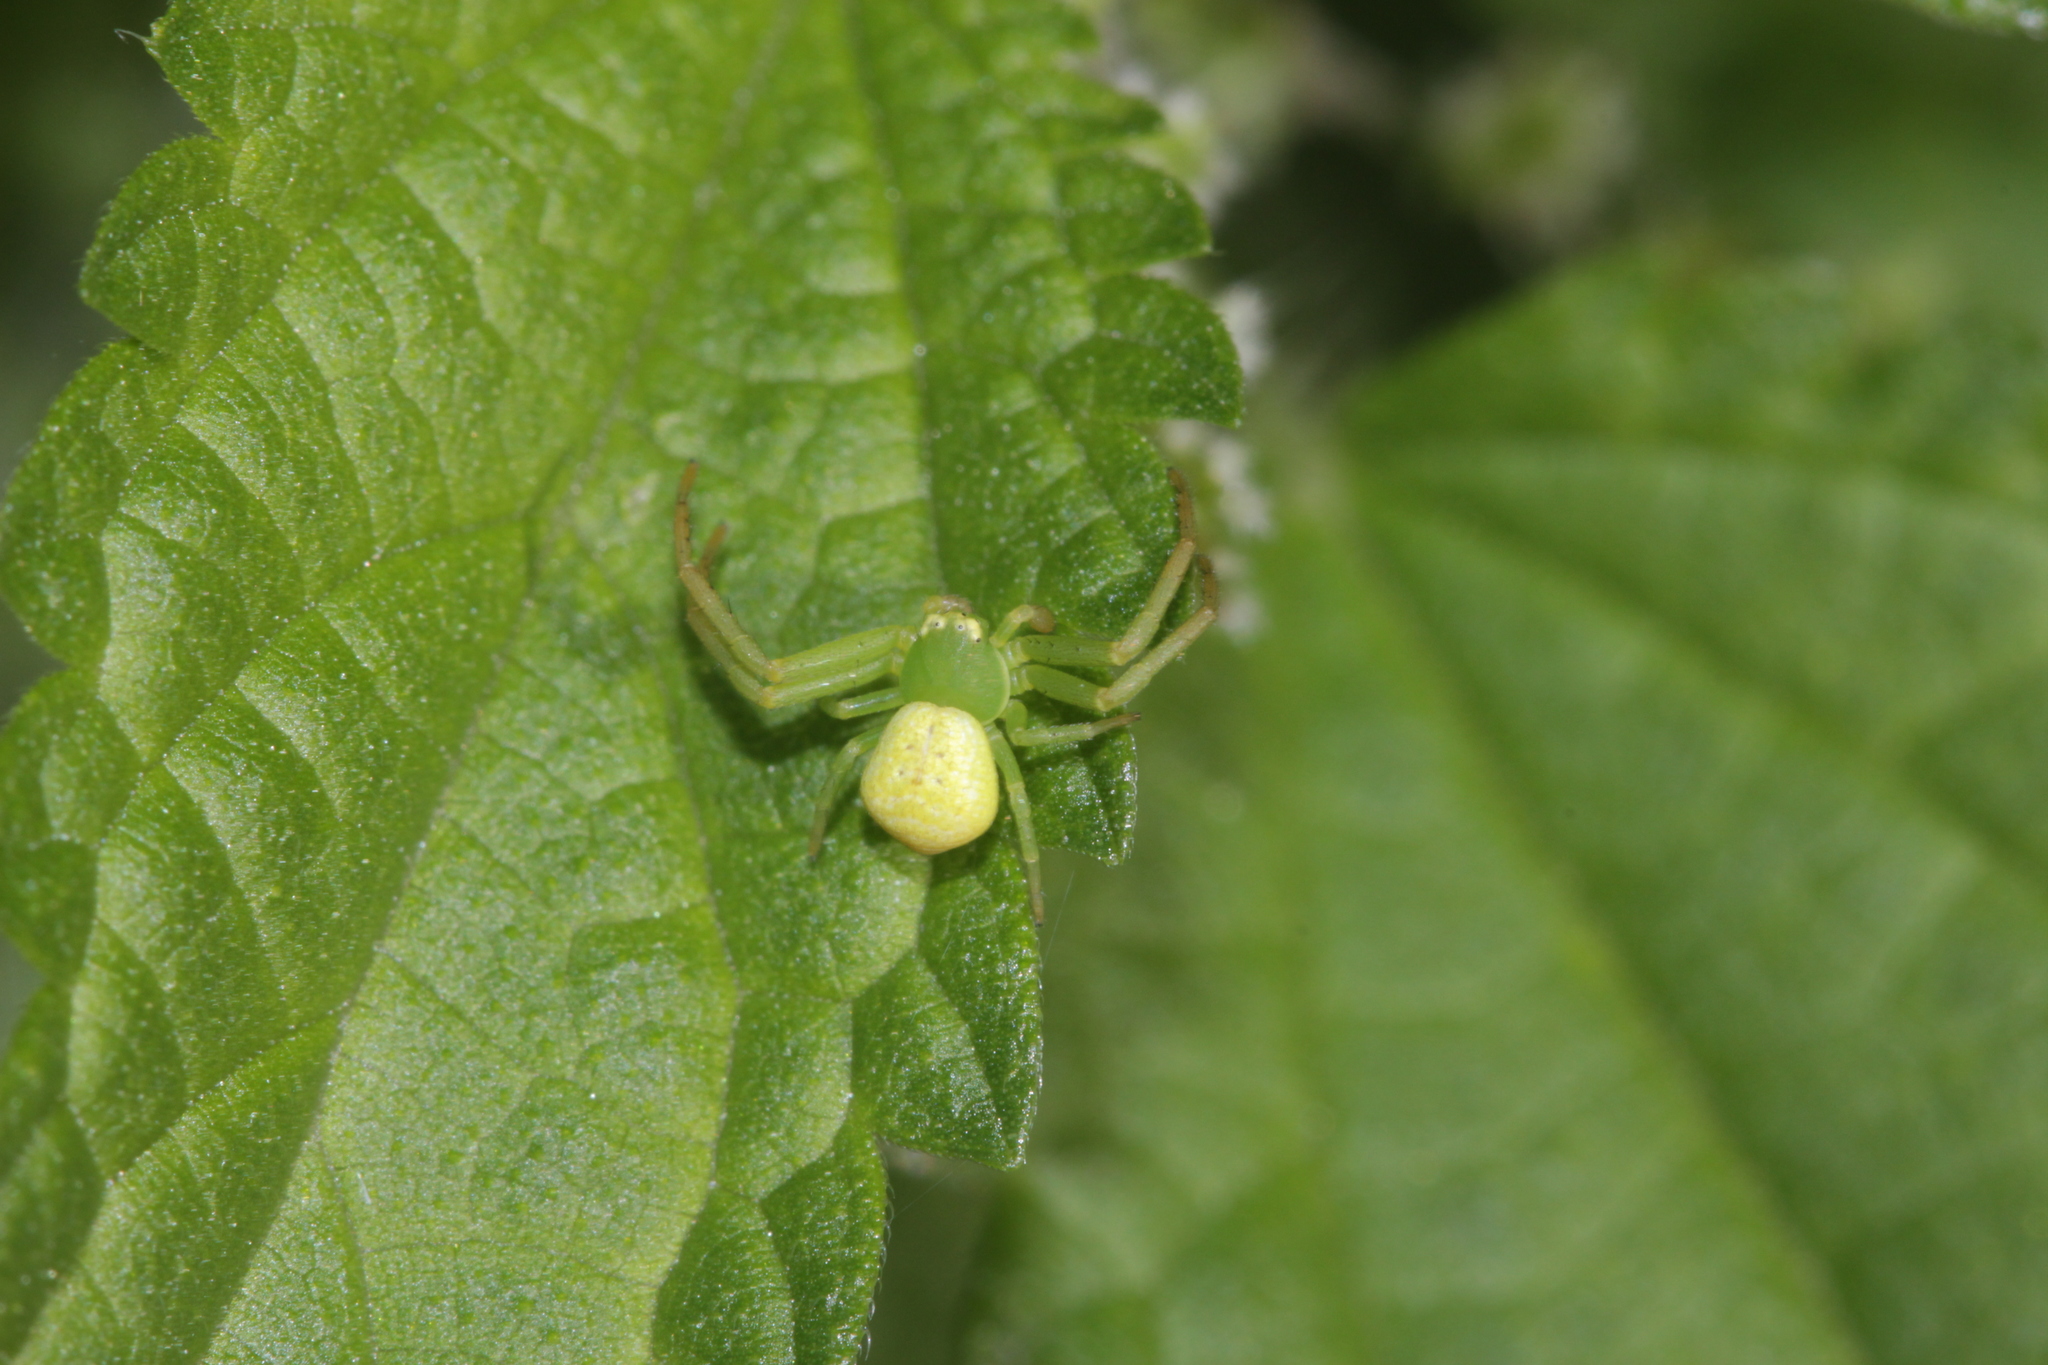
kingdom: Animalia
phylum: Arthropoda
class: Arachnida
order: Araneae
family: Thomisidae
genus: Ebrechtella
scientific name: Ebrechtella tricuspidata
